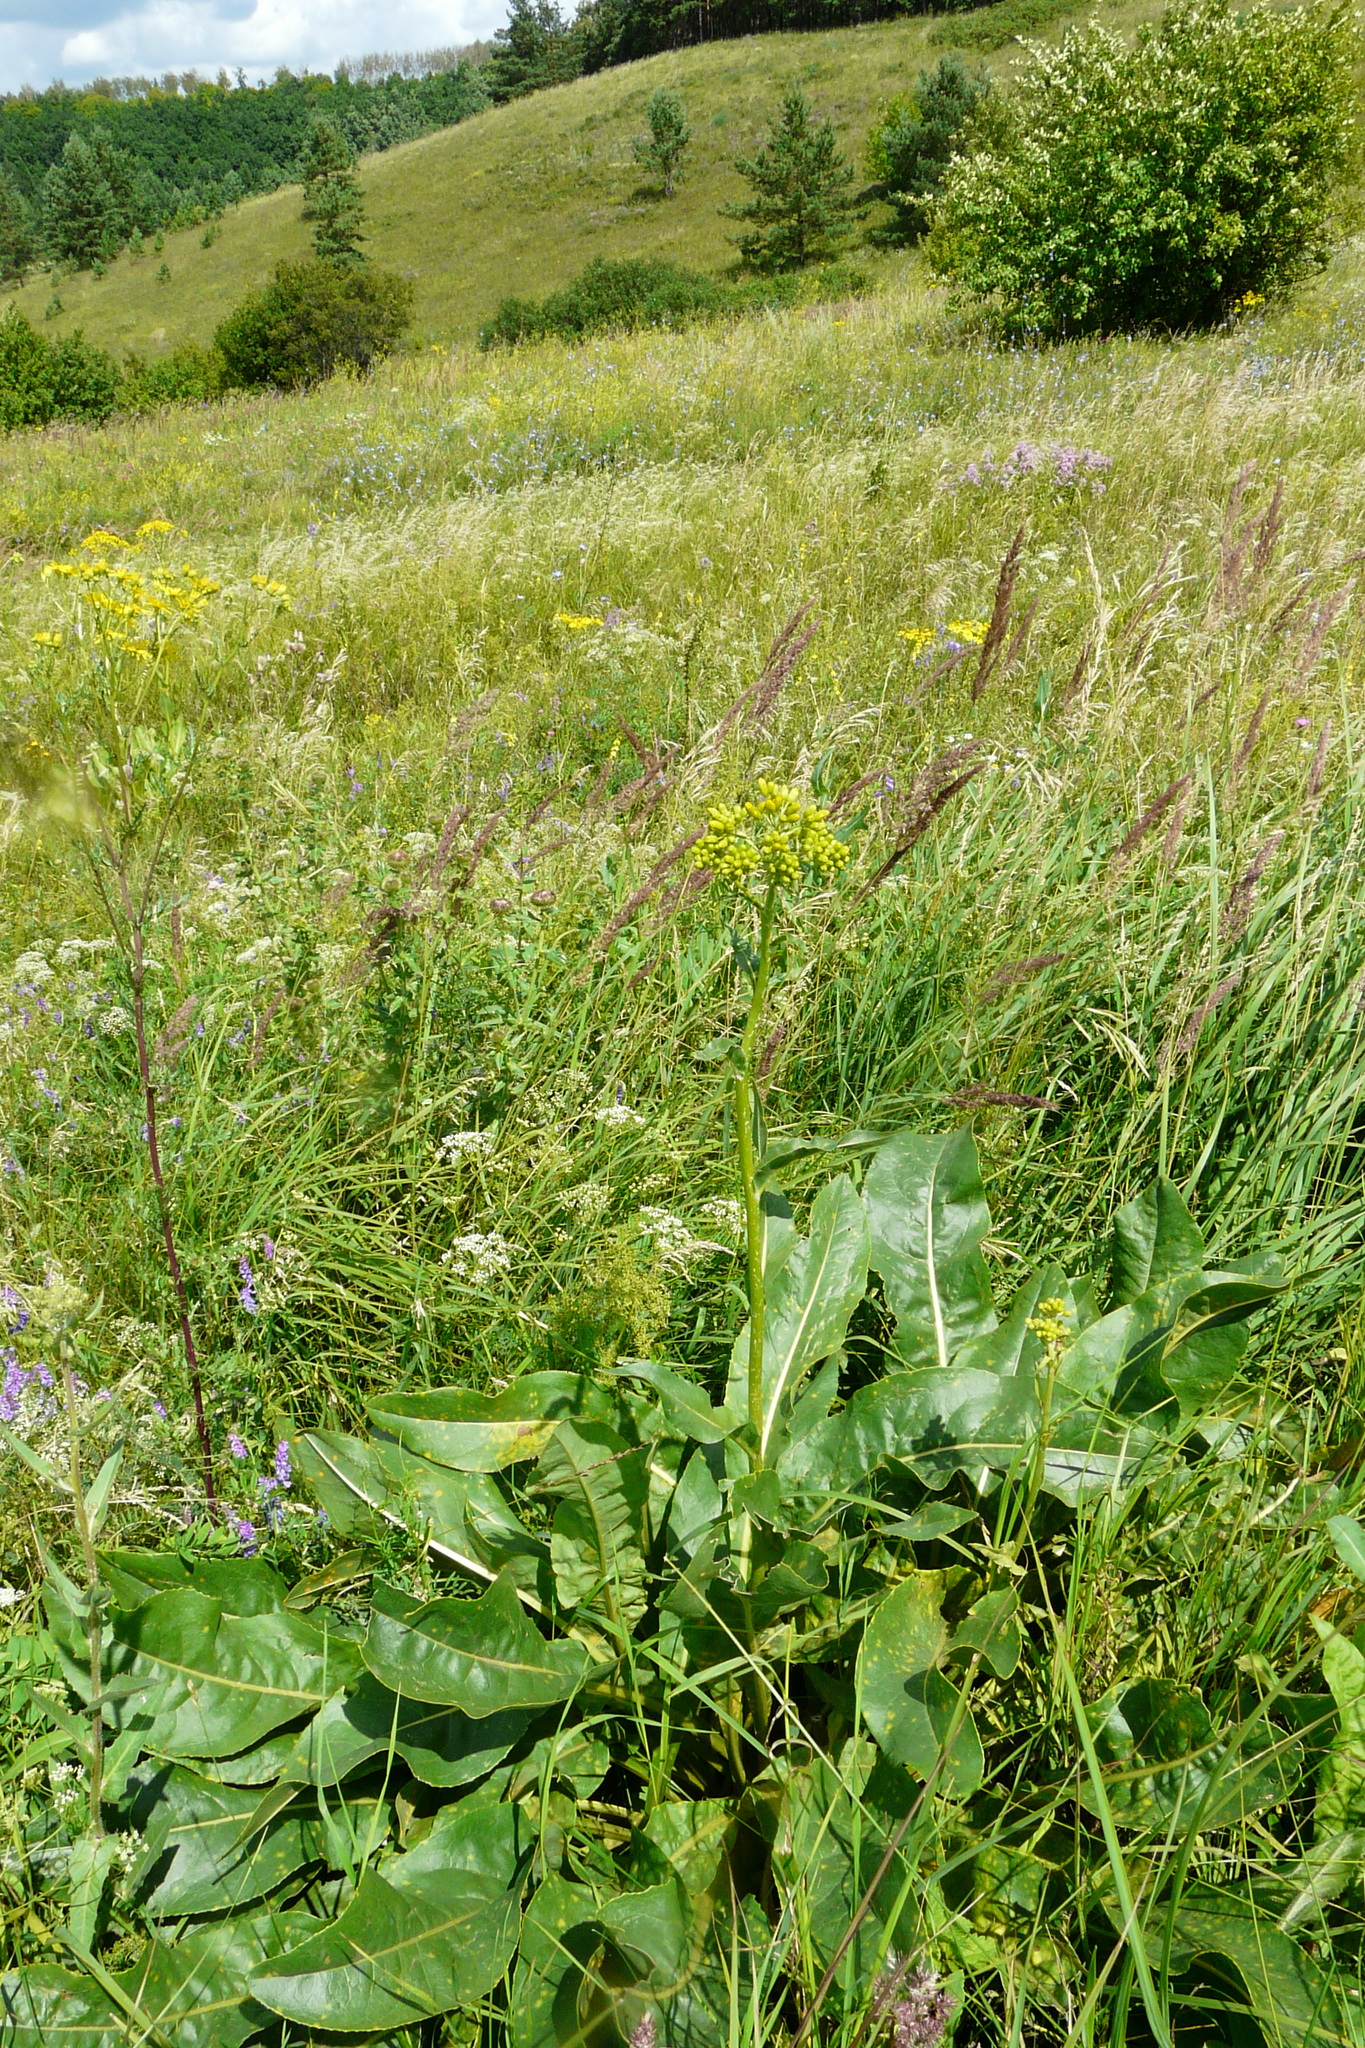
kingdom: Plantae
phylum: Tracheophyta
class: Magnoliopsida
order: Asterales
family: Asteraceae
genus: Senecio
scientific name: Senecio doria
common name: Golden ragwort
